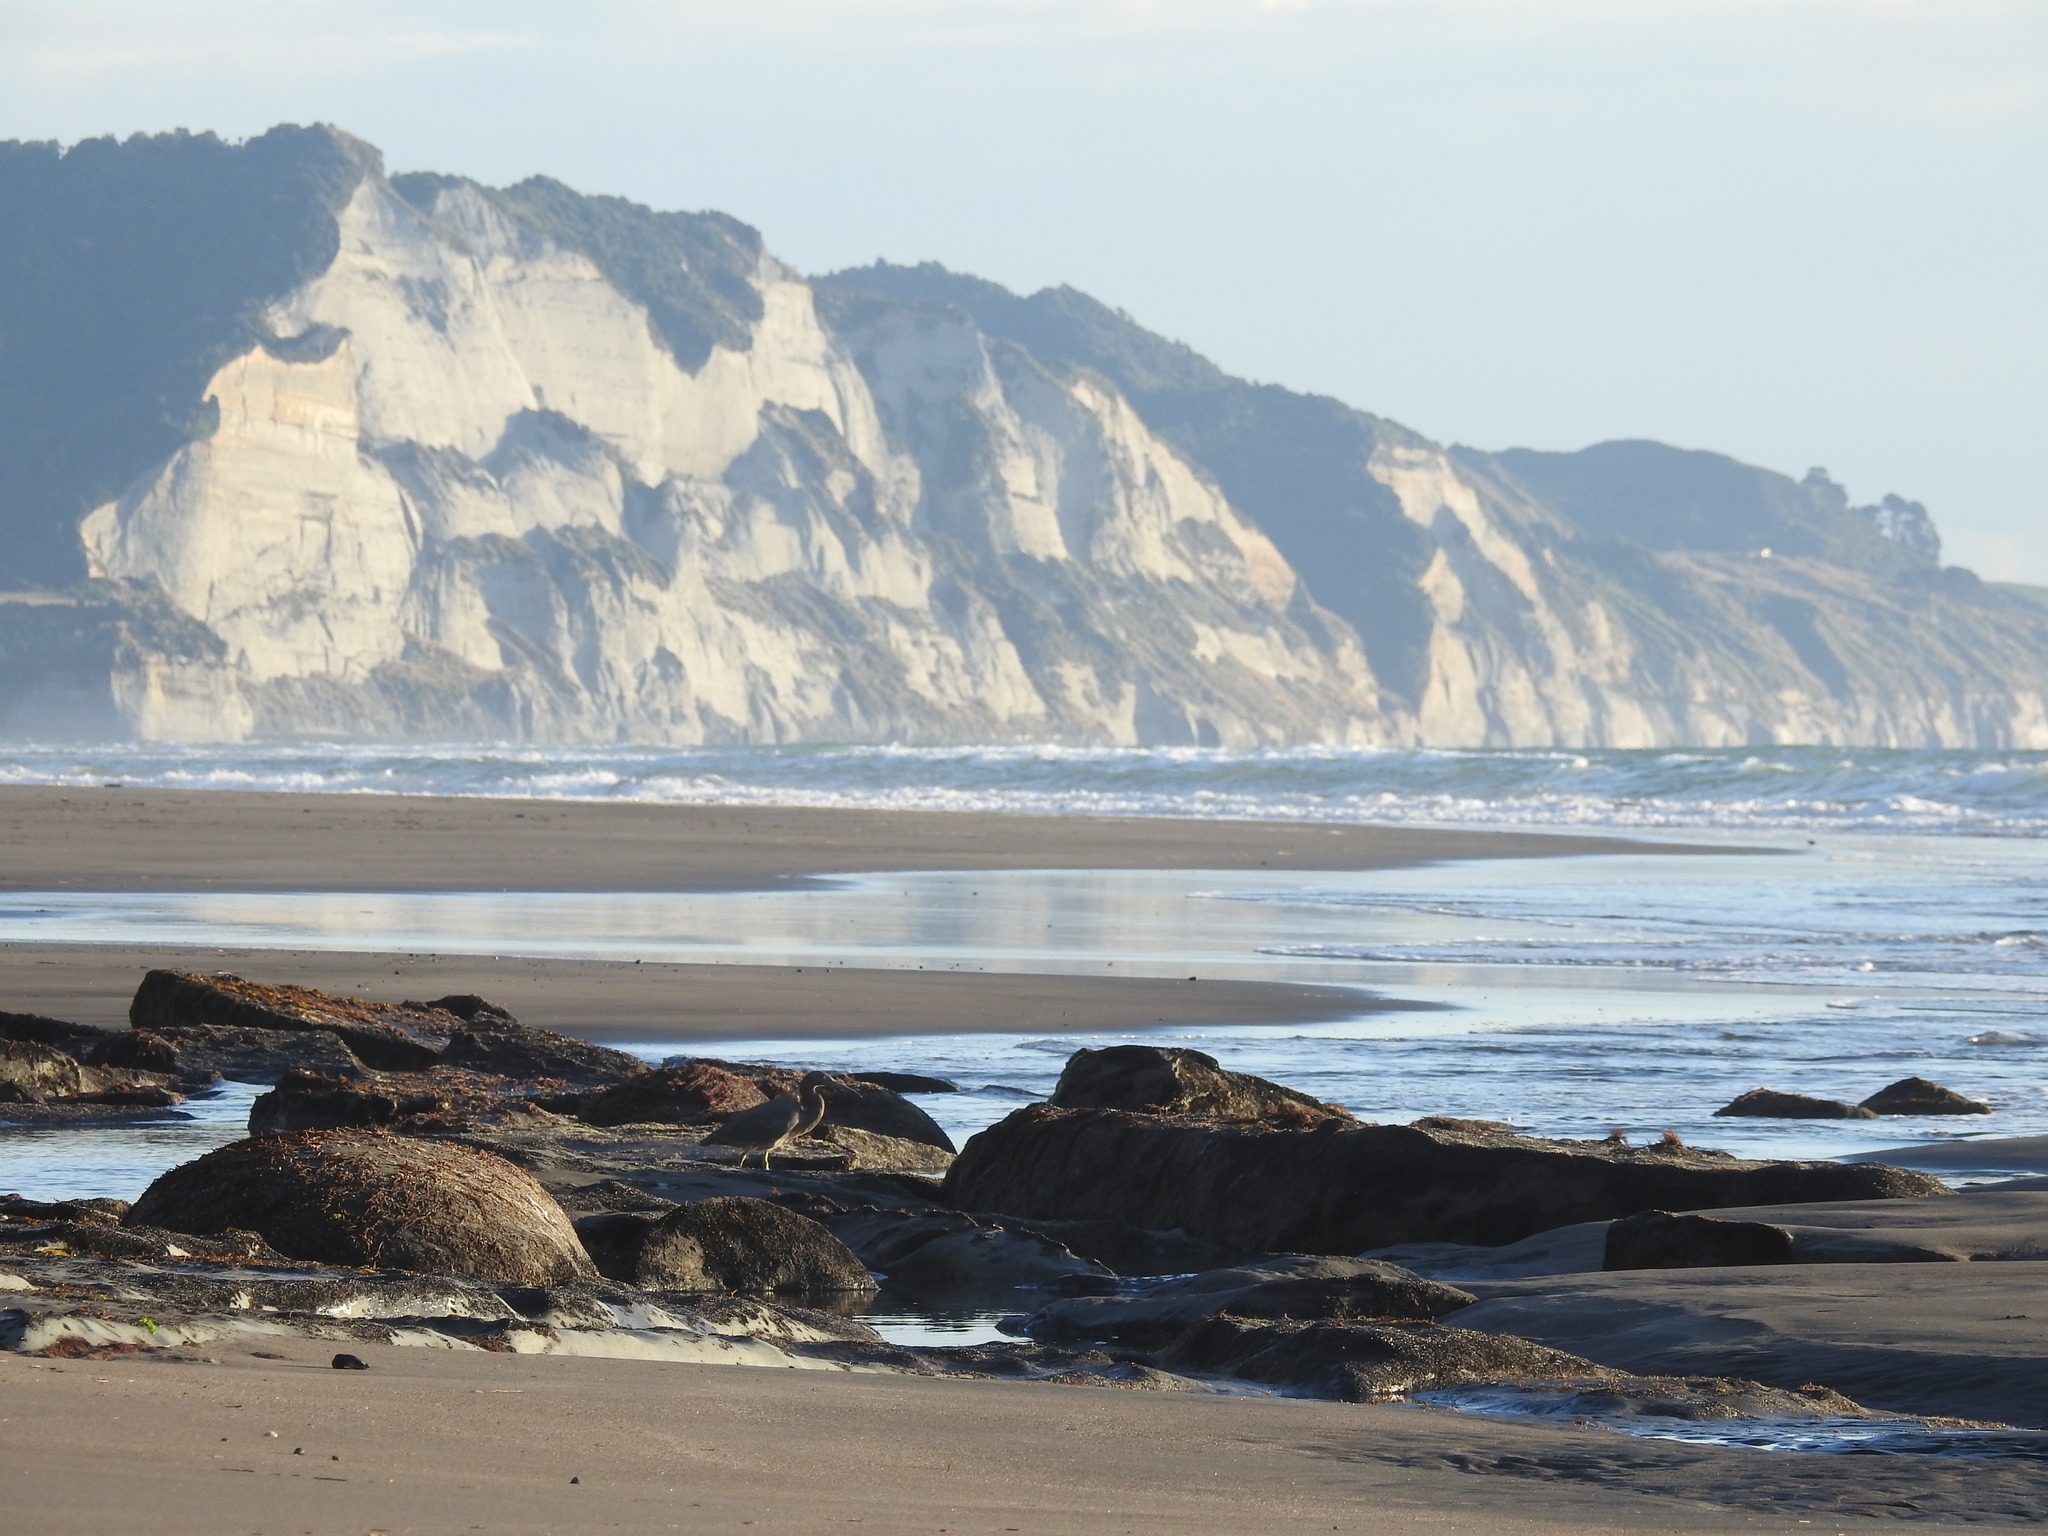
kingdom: Animalia
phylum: Chordata
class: Aves
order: Pelecaniformes
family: Ardeidae
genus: Egretta
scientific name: Egretta sacra
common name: Pacific reef heron
